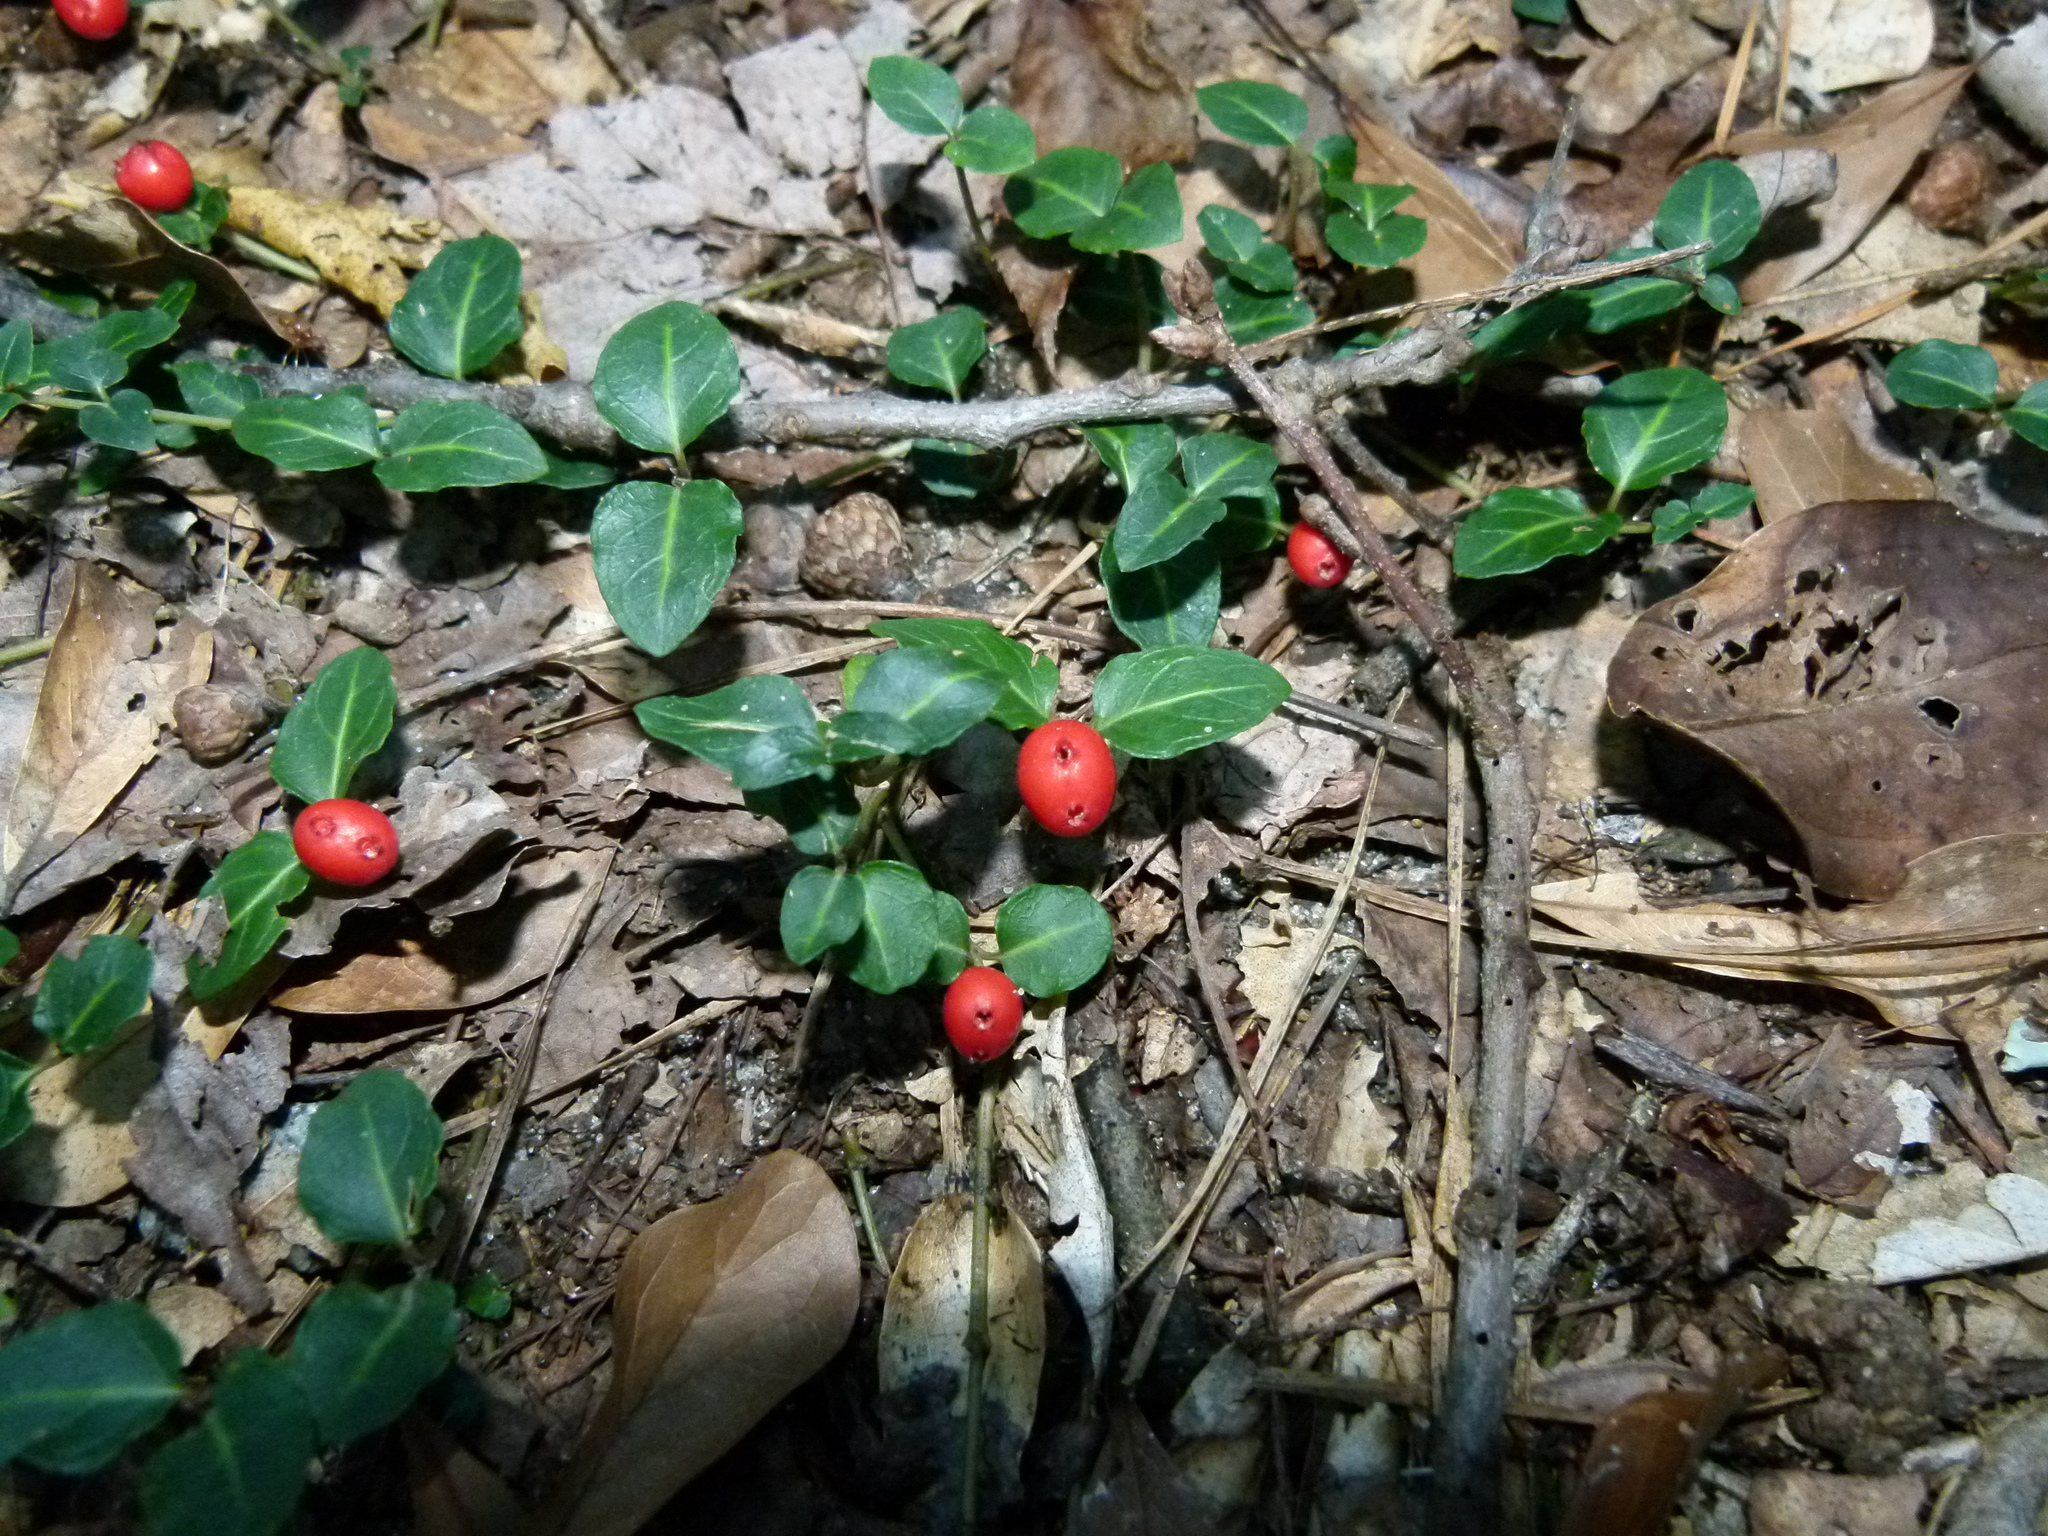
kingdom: Plantae
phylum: Tracheophyta
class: Magnoliopsida
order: Gentianales
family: Rubiaceae
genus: Mitchella
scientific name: Mitchella repens
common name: Partridge-berry
